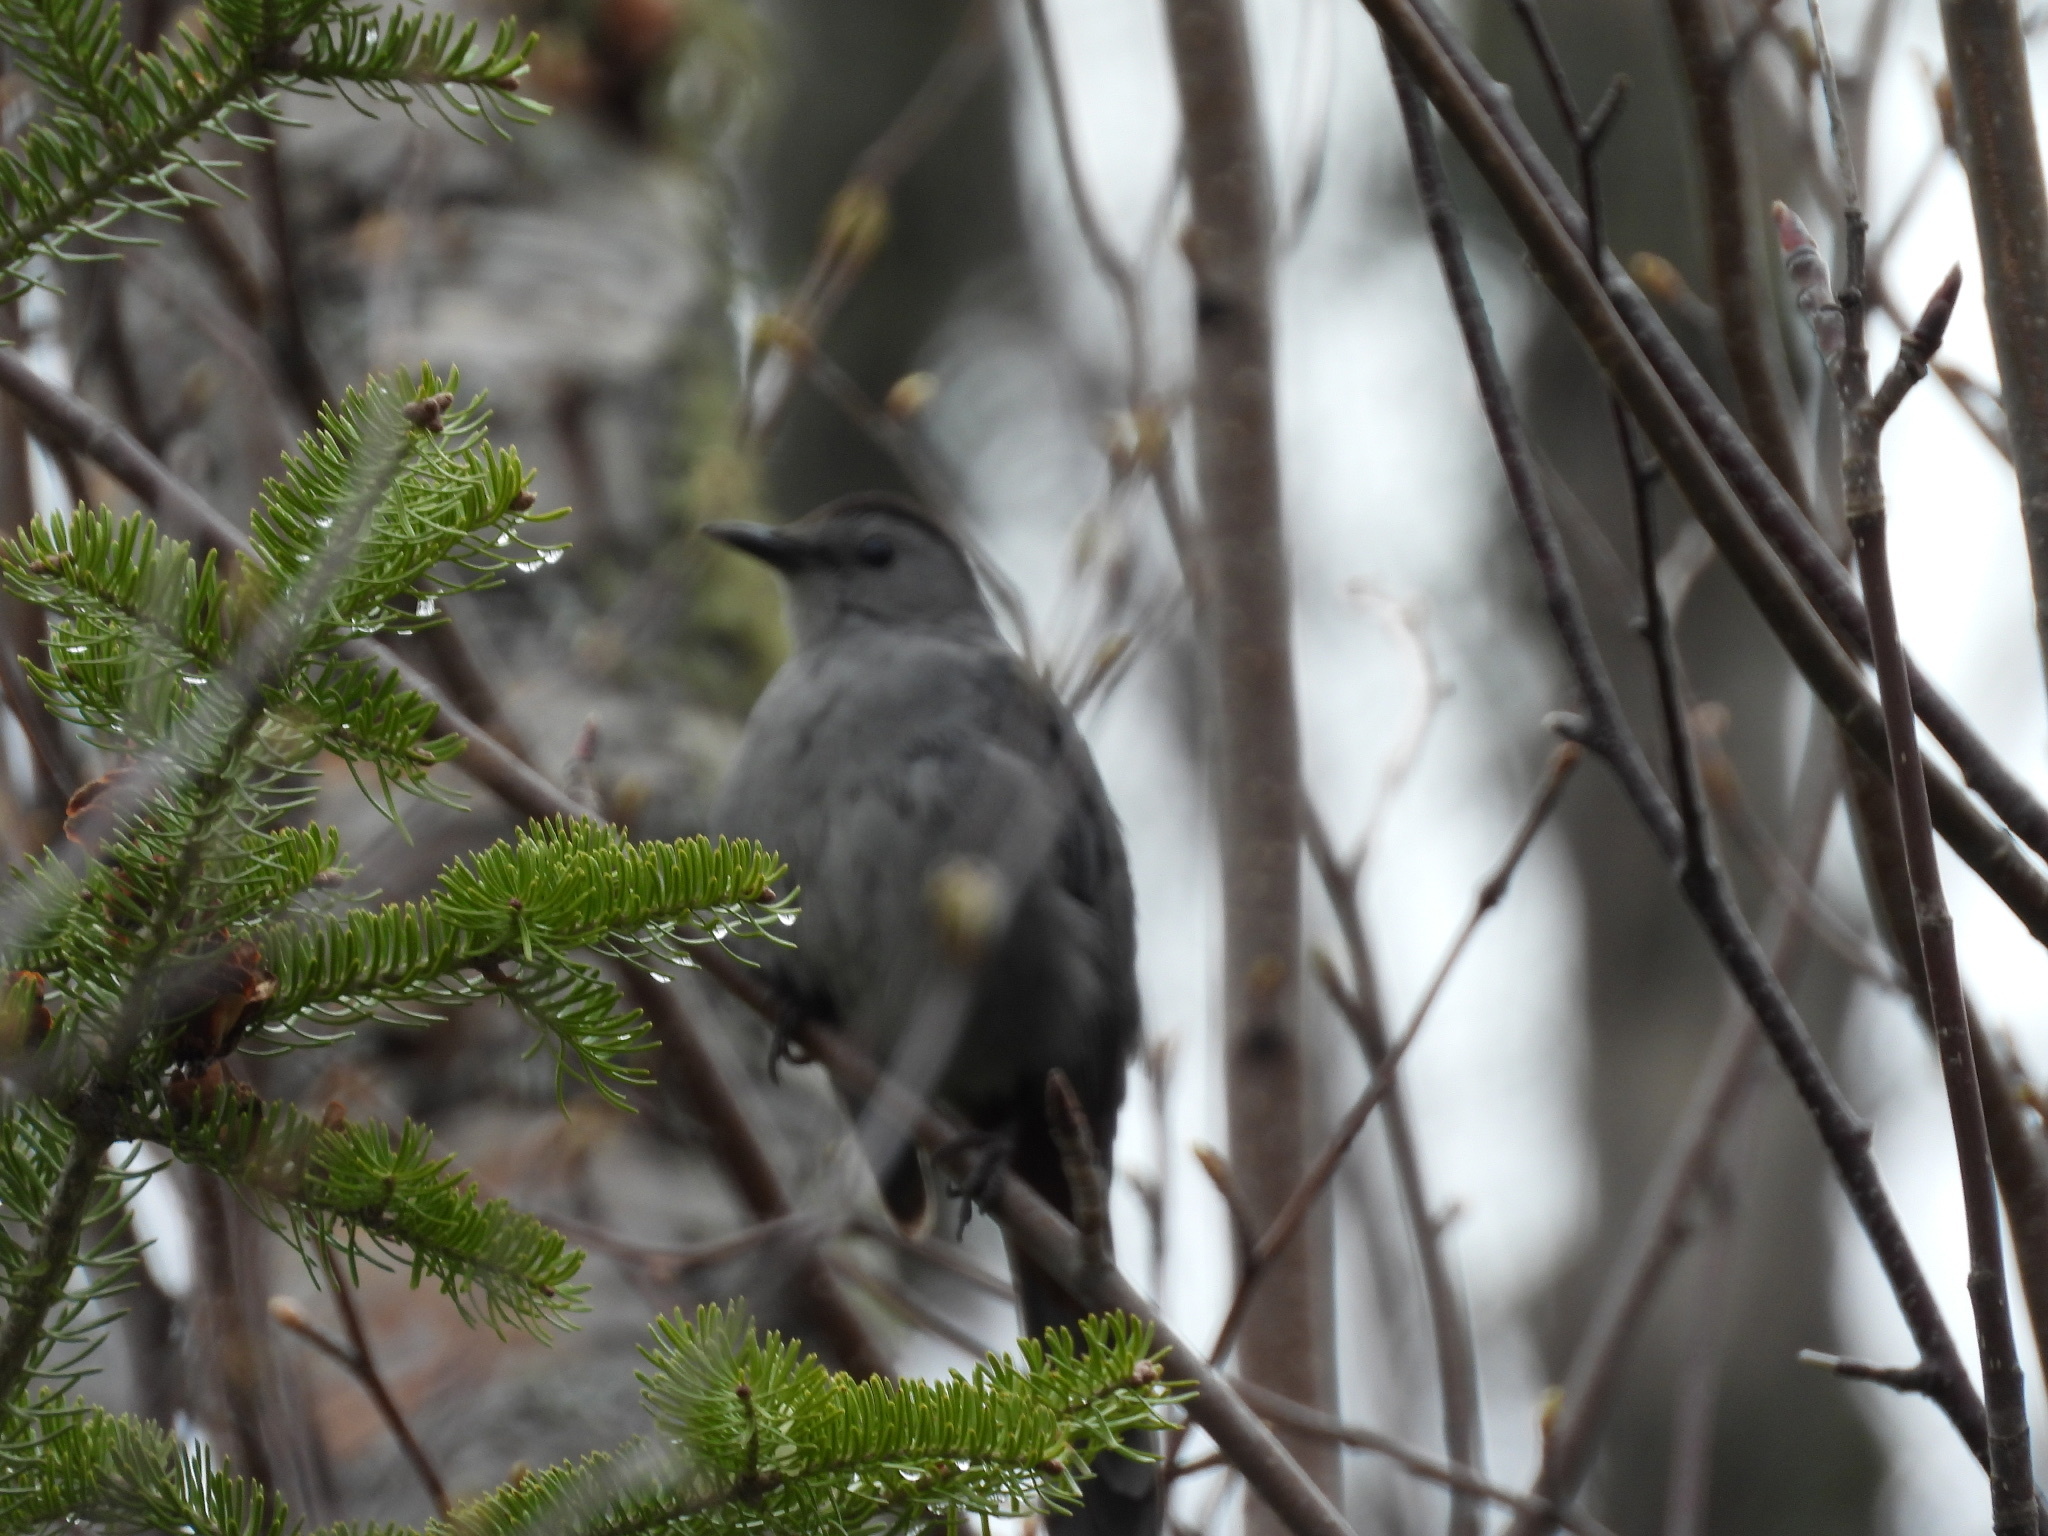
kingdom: Animalia
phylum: Chordata
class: Aves
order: Passeriformes
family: Mimidae
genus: Dumetella
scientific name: Dumetella carolinensis
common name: Gray catbird
